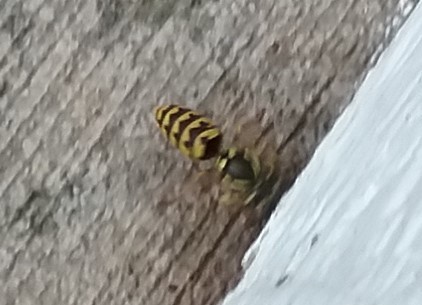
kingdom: Animalia
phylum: Arthropoda
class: Insecta
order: Hymenoptera
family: Vespidae
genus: Vespula
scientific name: Vespula germanica
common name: German wasp
